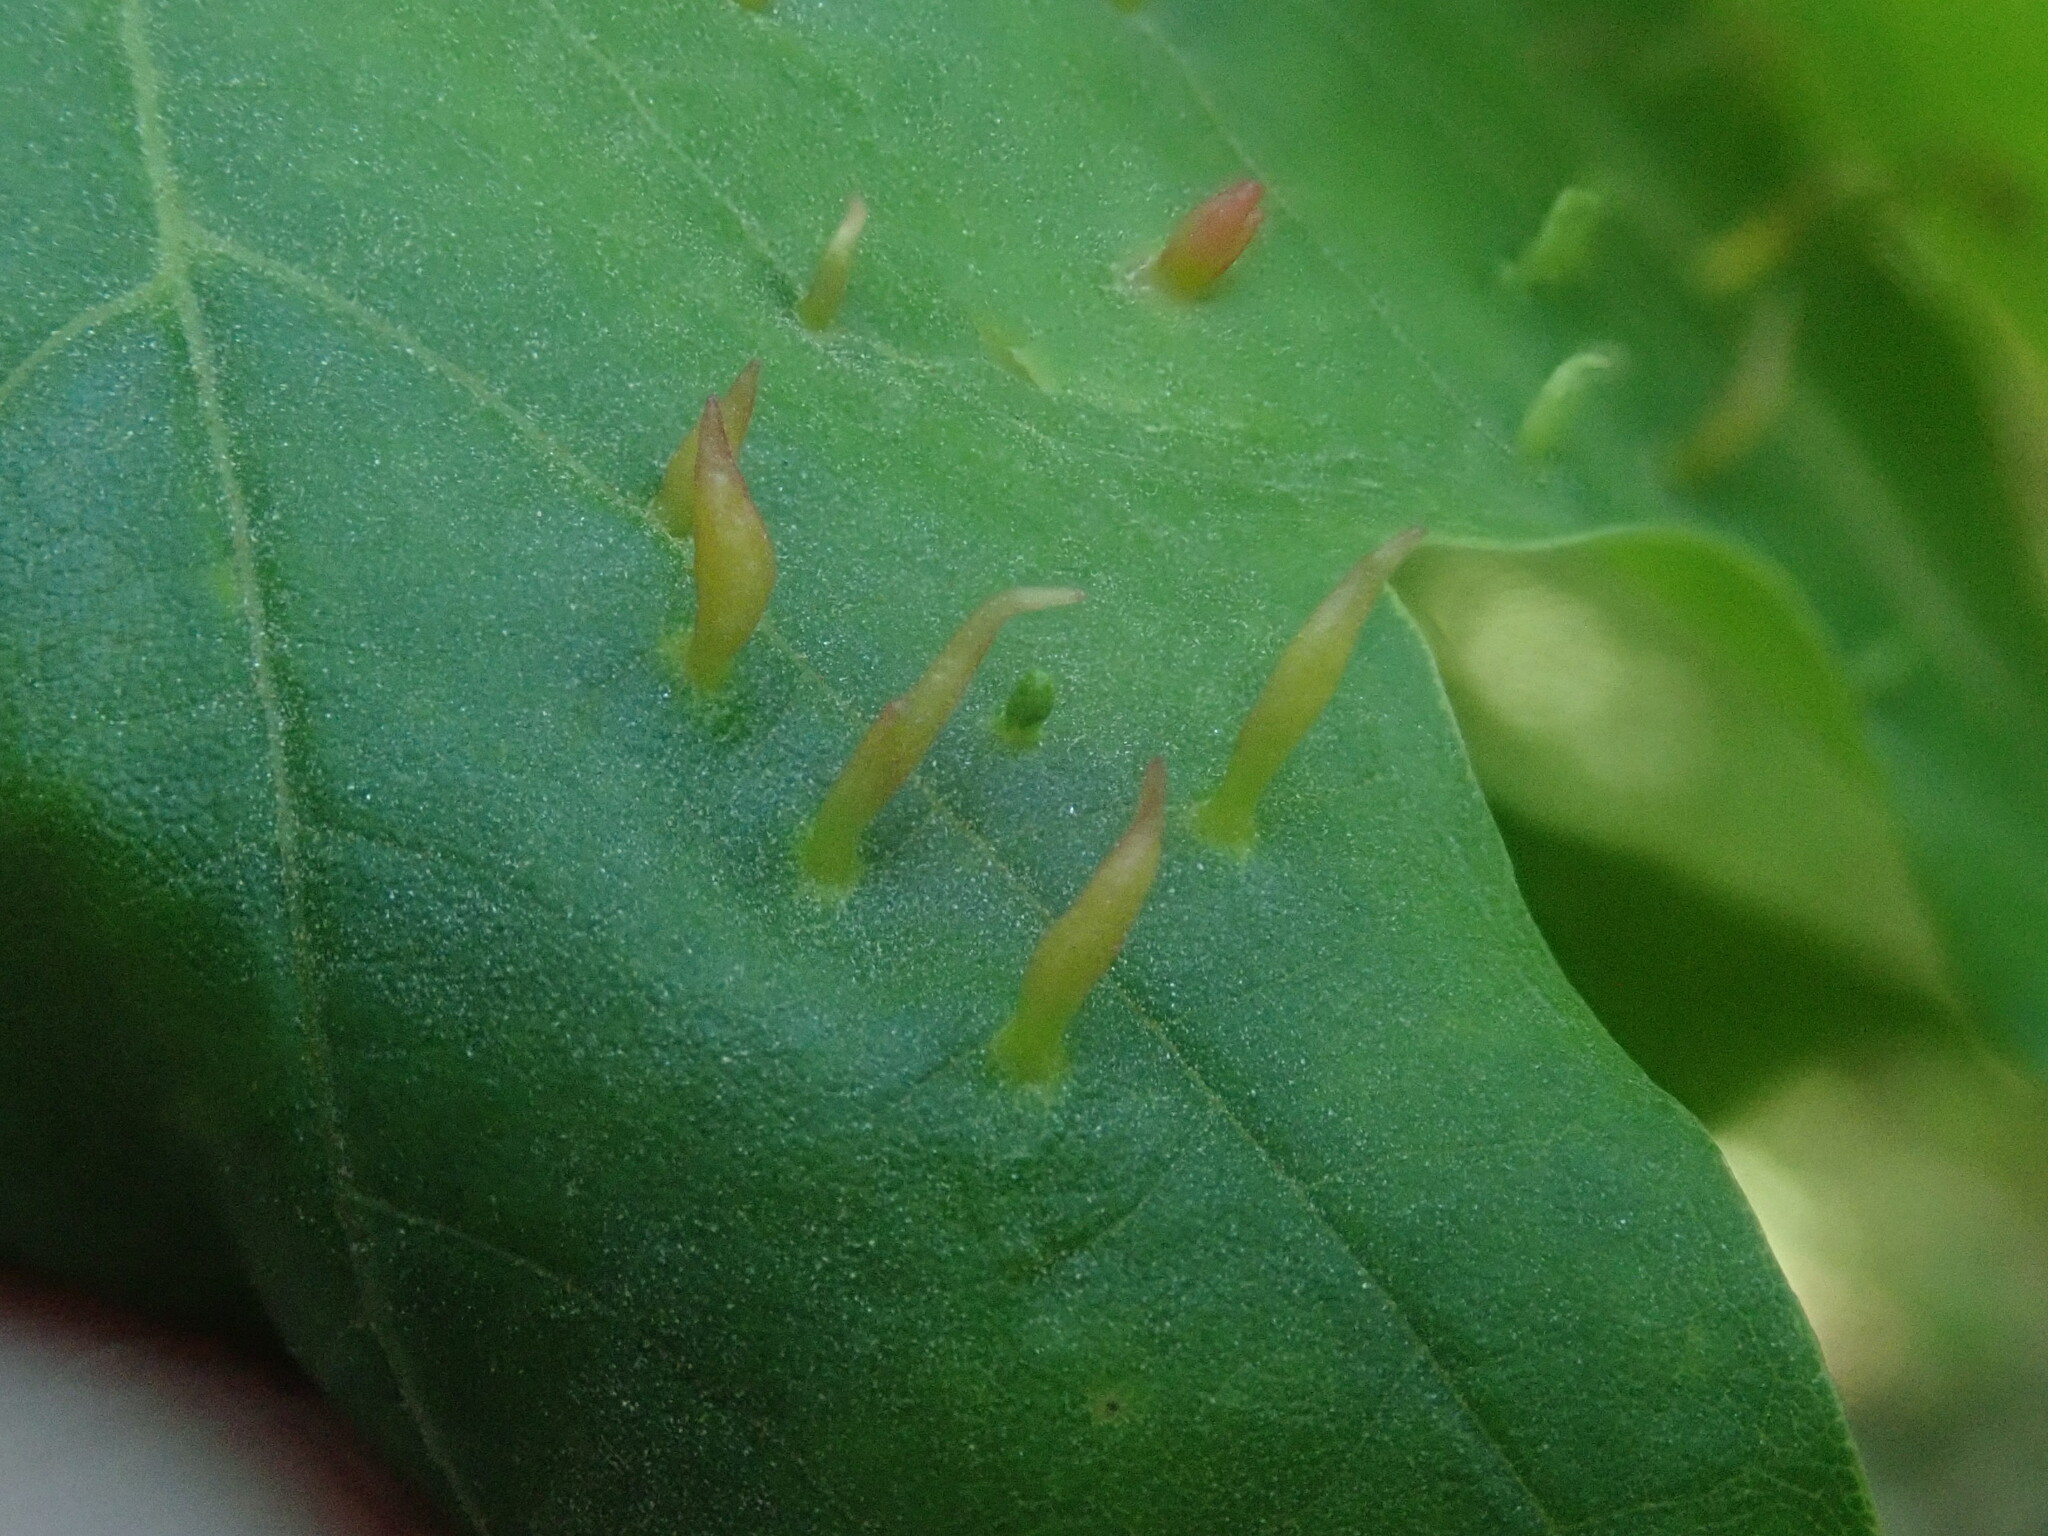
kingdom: Animalia
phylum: Arthropoda
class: Arachnida
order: Trombidiformes
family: Eriophyidae
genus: Vasates
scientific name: Vasates aceriscrumena
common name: Maple spindle gall mite
